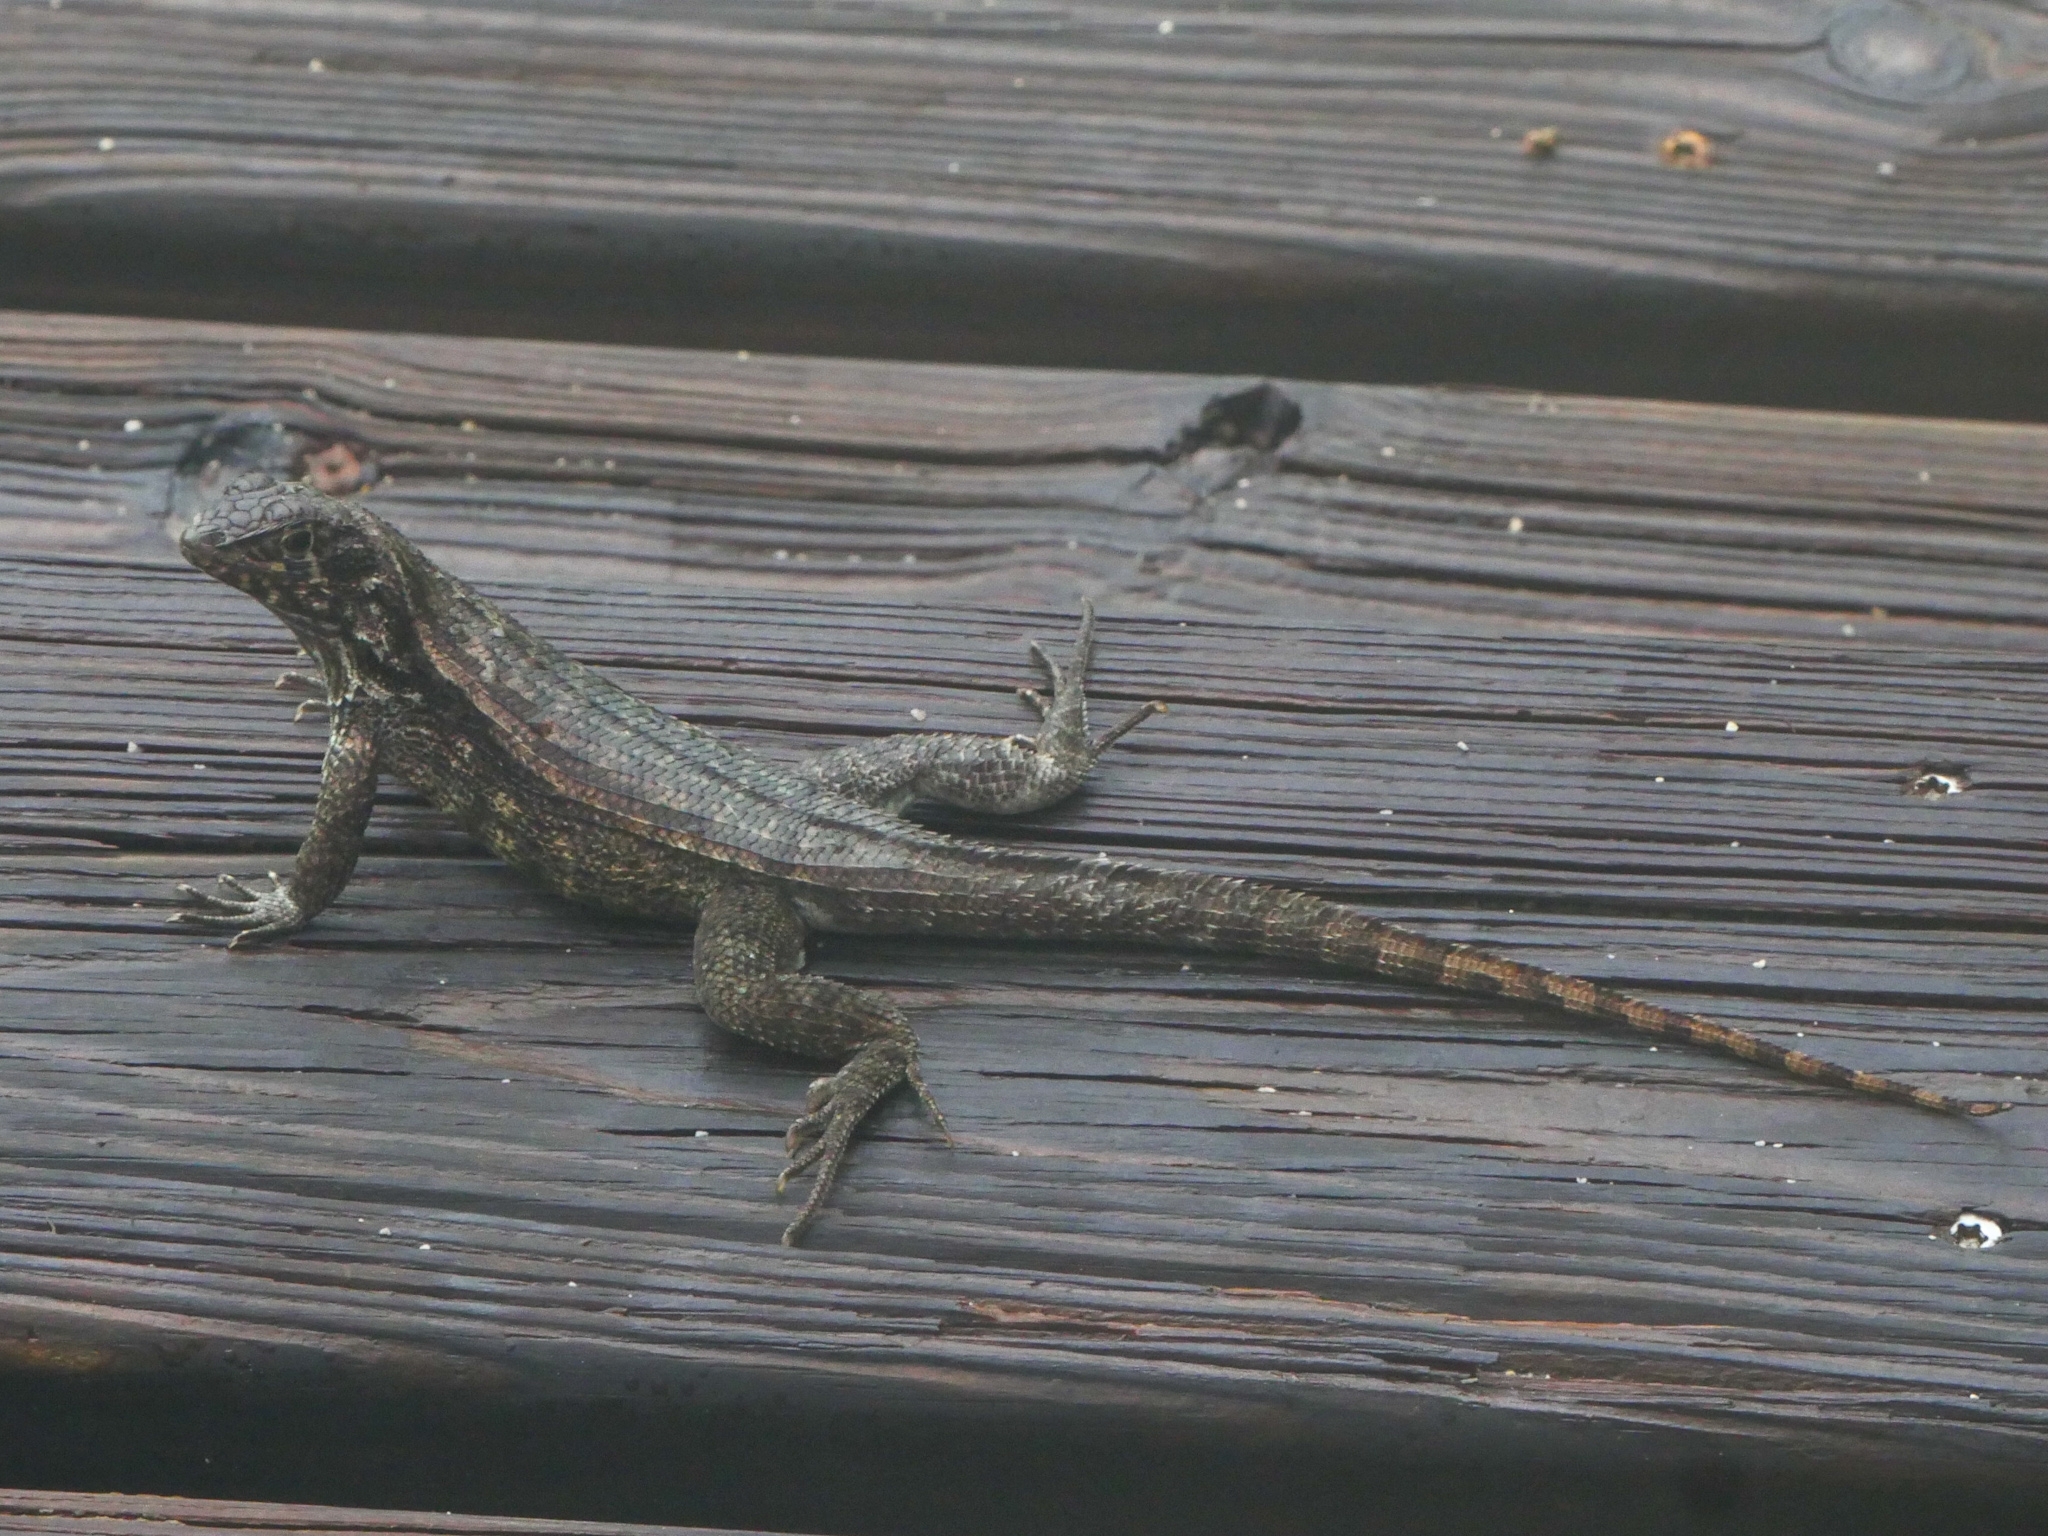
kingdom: Animalia
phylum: Chordata
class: Squamata
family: Leiocephalidae
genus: Leiocephalus
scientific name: Leiocephalus varius
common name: Cayman curlytail
